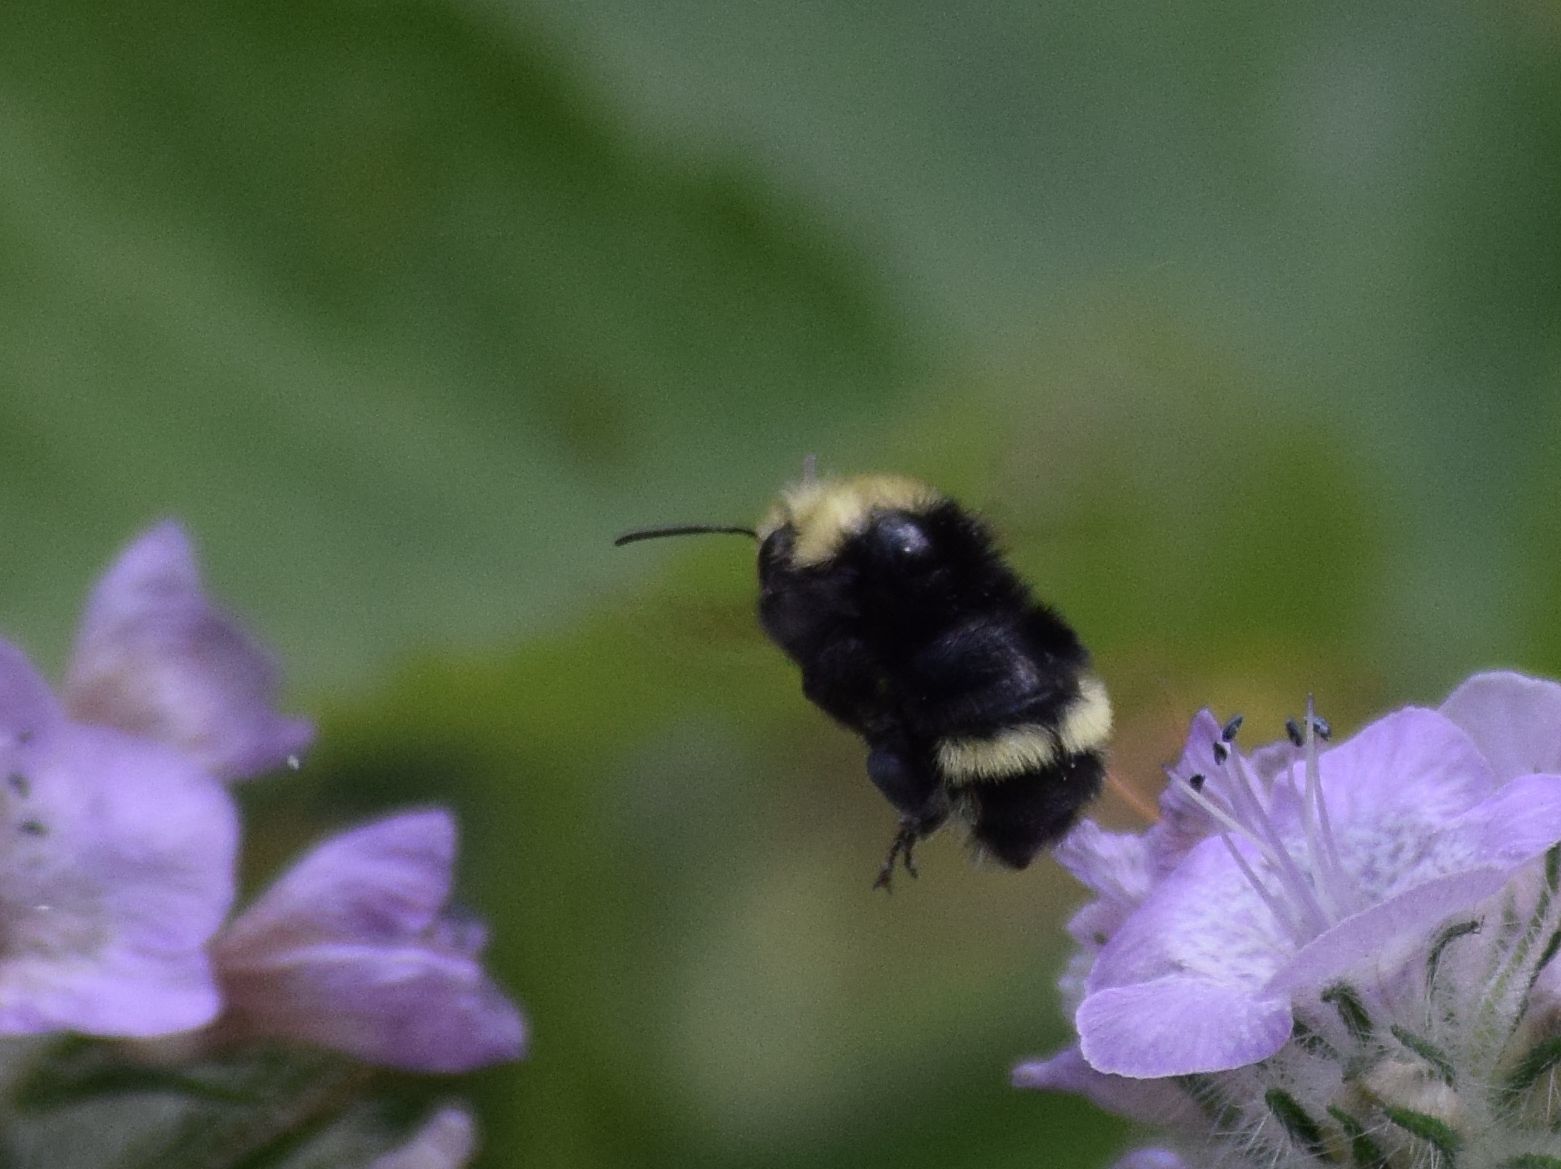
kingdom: Animalia
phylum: Arthropoda
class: Insecta
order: Hymenoptera
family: Apidae
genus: Bombus
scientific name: Bombus vandykei
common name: Van dyke bumble bee
